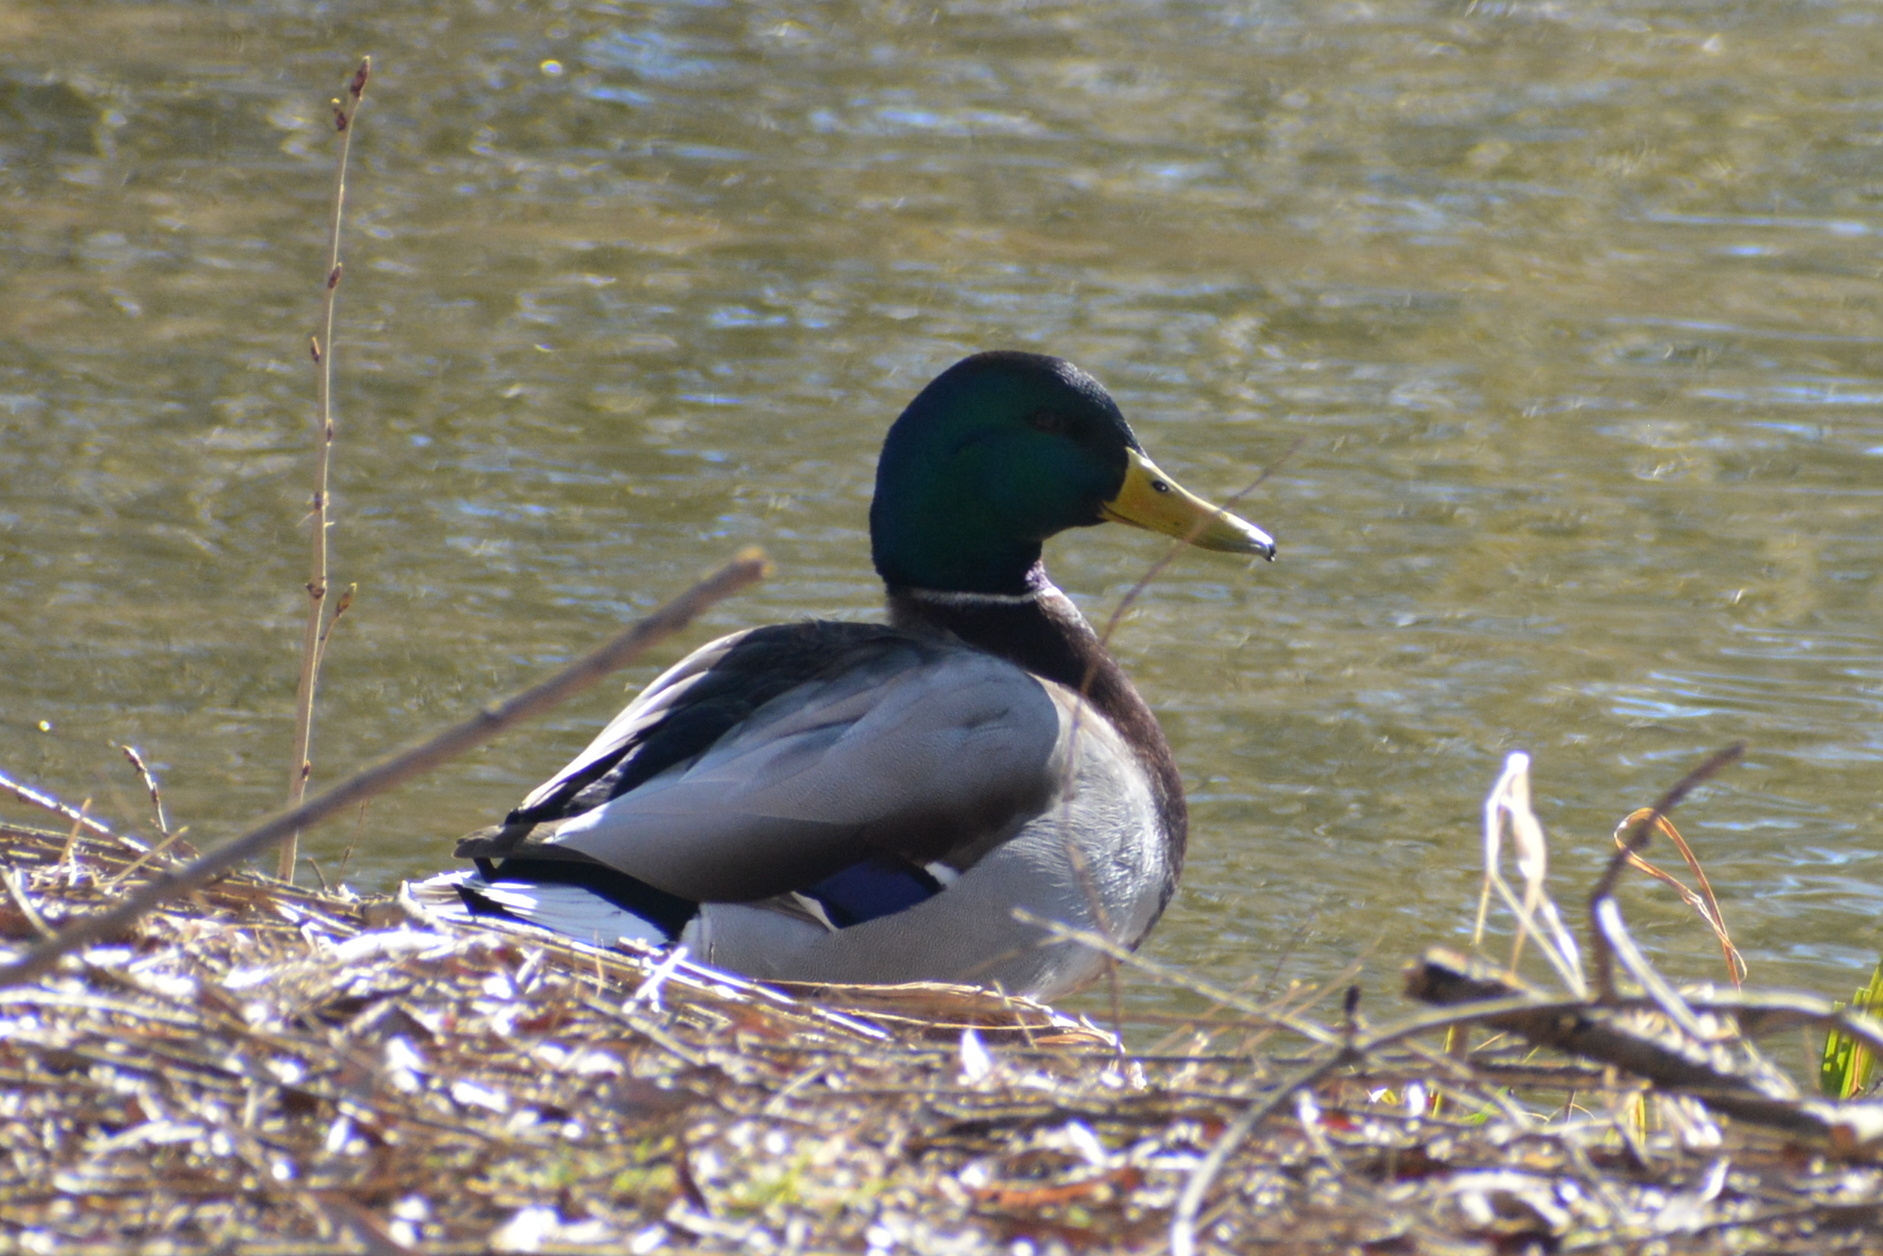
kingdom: Animalia
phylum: Chordata
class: Aves
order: Anseriformes
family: Anatidae
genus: Anas
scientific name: Anas platyrhynchos
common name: Mallard
